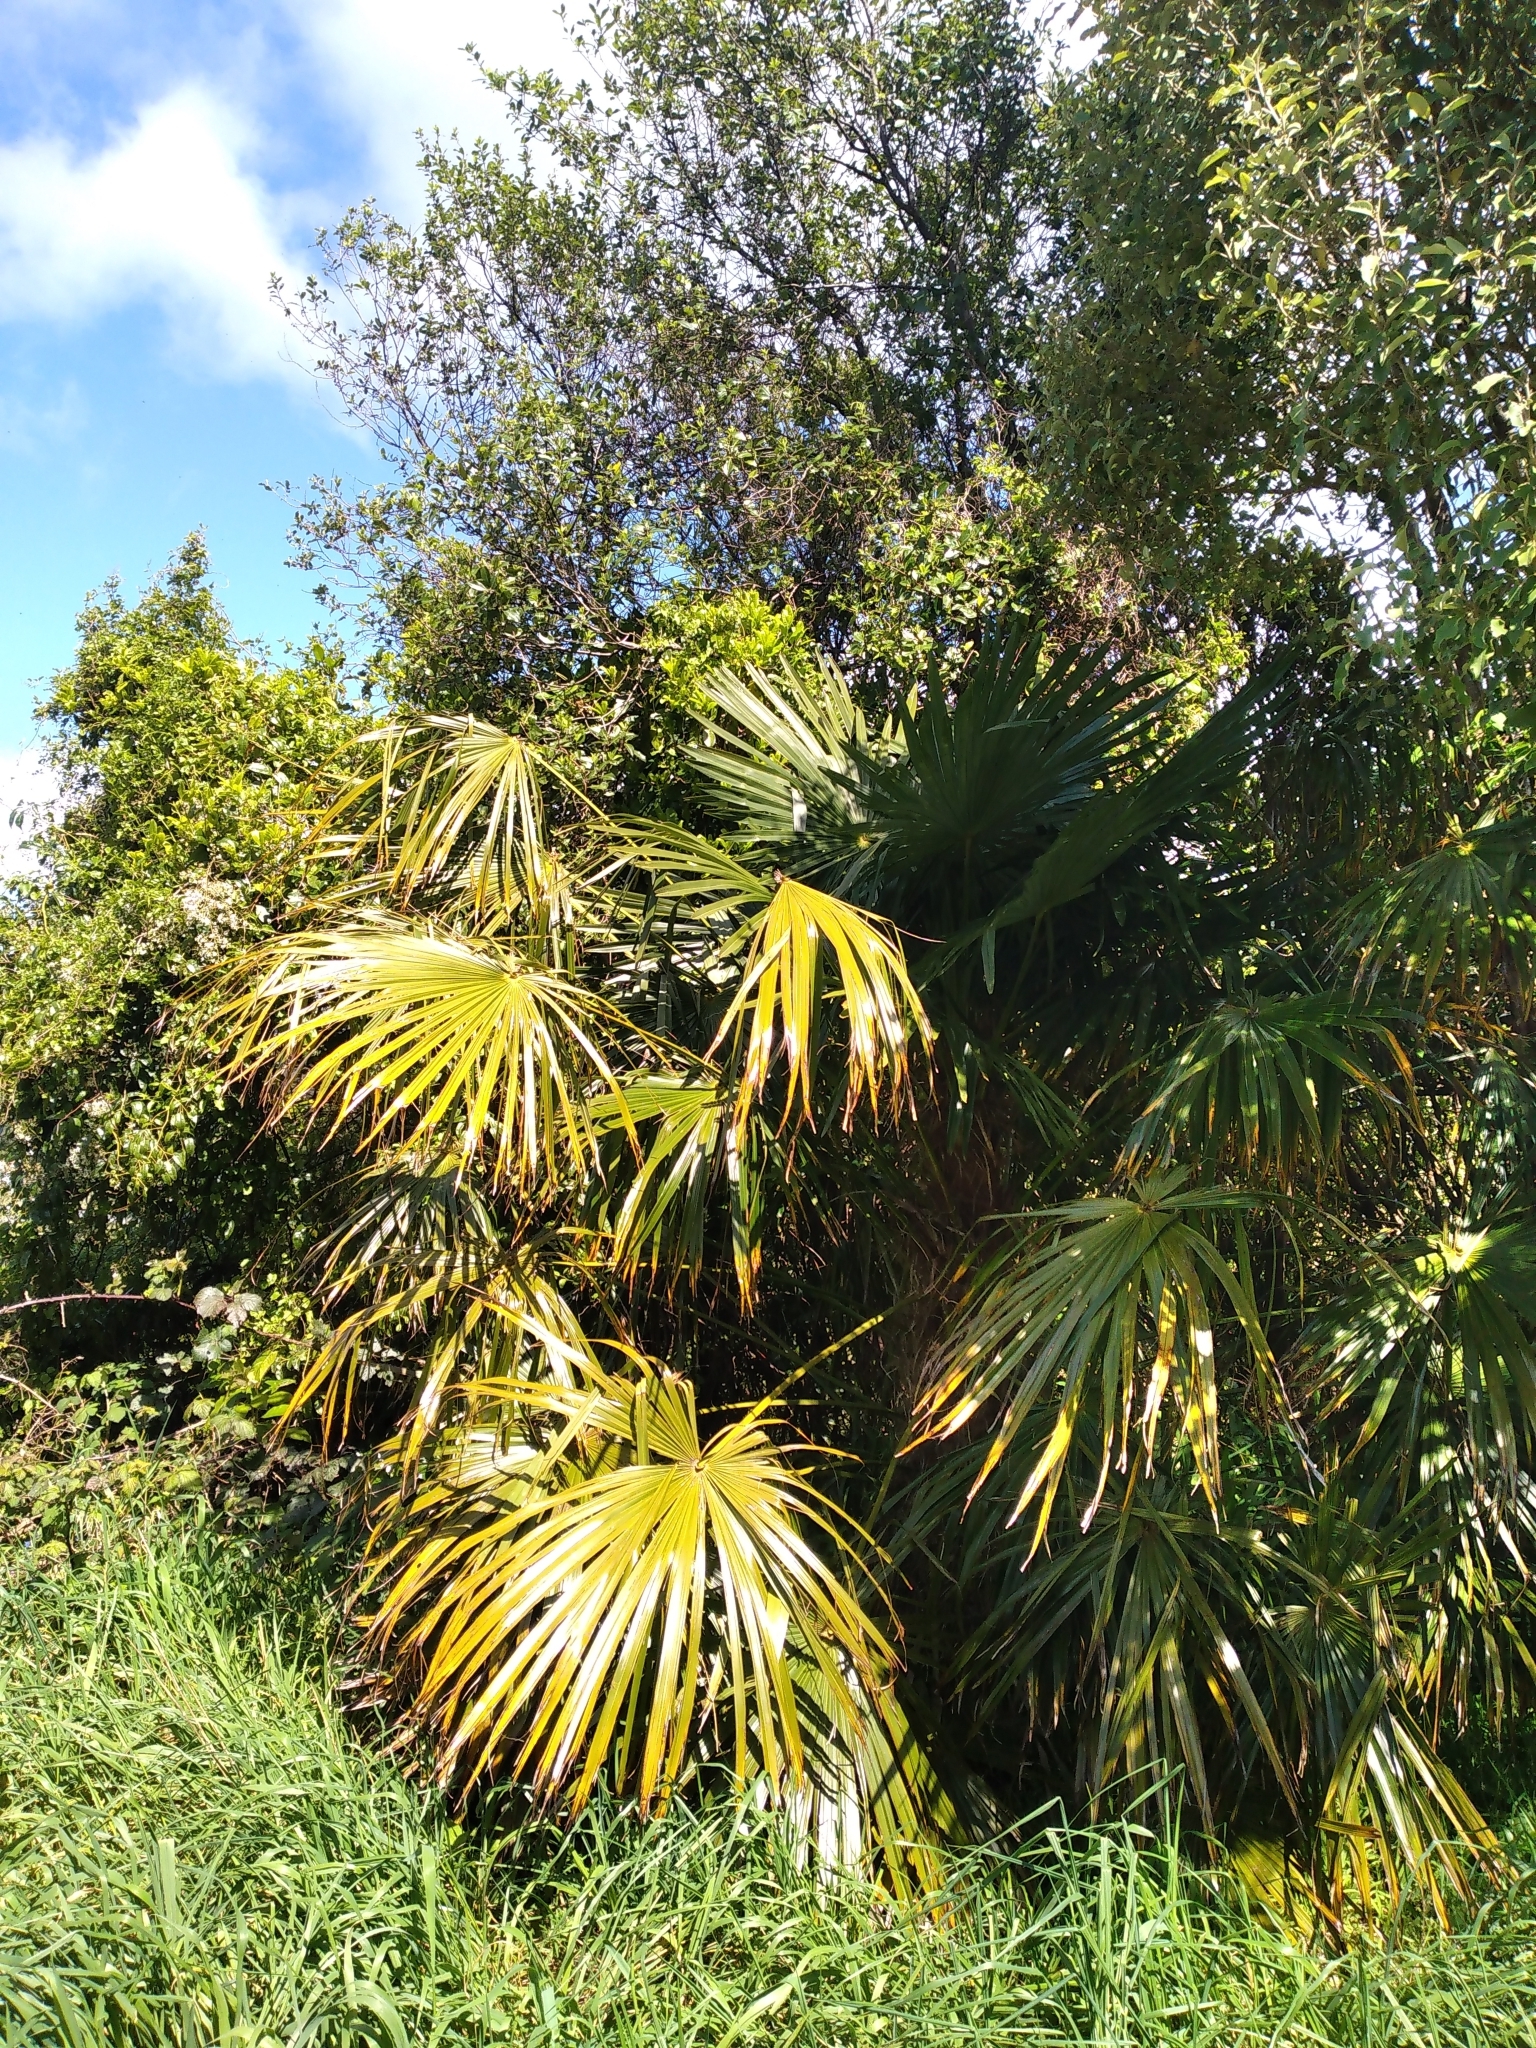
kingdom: Plantae
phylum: Tracheophyta
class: Liliopsida
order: Arecales
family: Arecaceae
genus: Trachycarpus
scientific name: Trachycarpus fortunei
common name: Chusan palm
